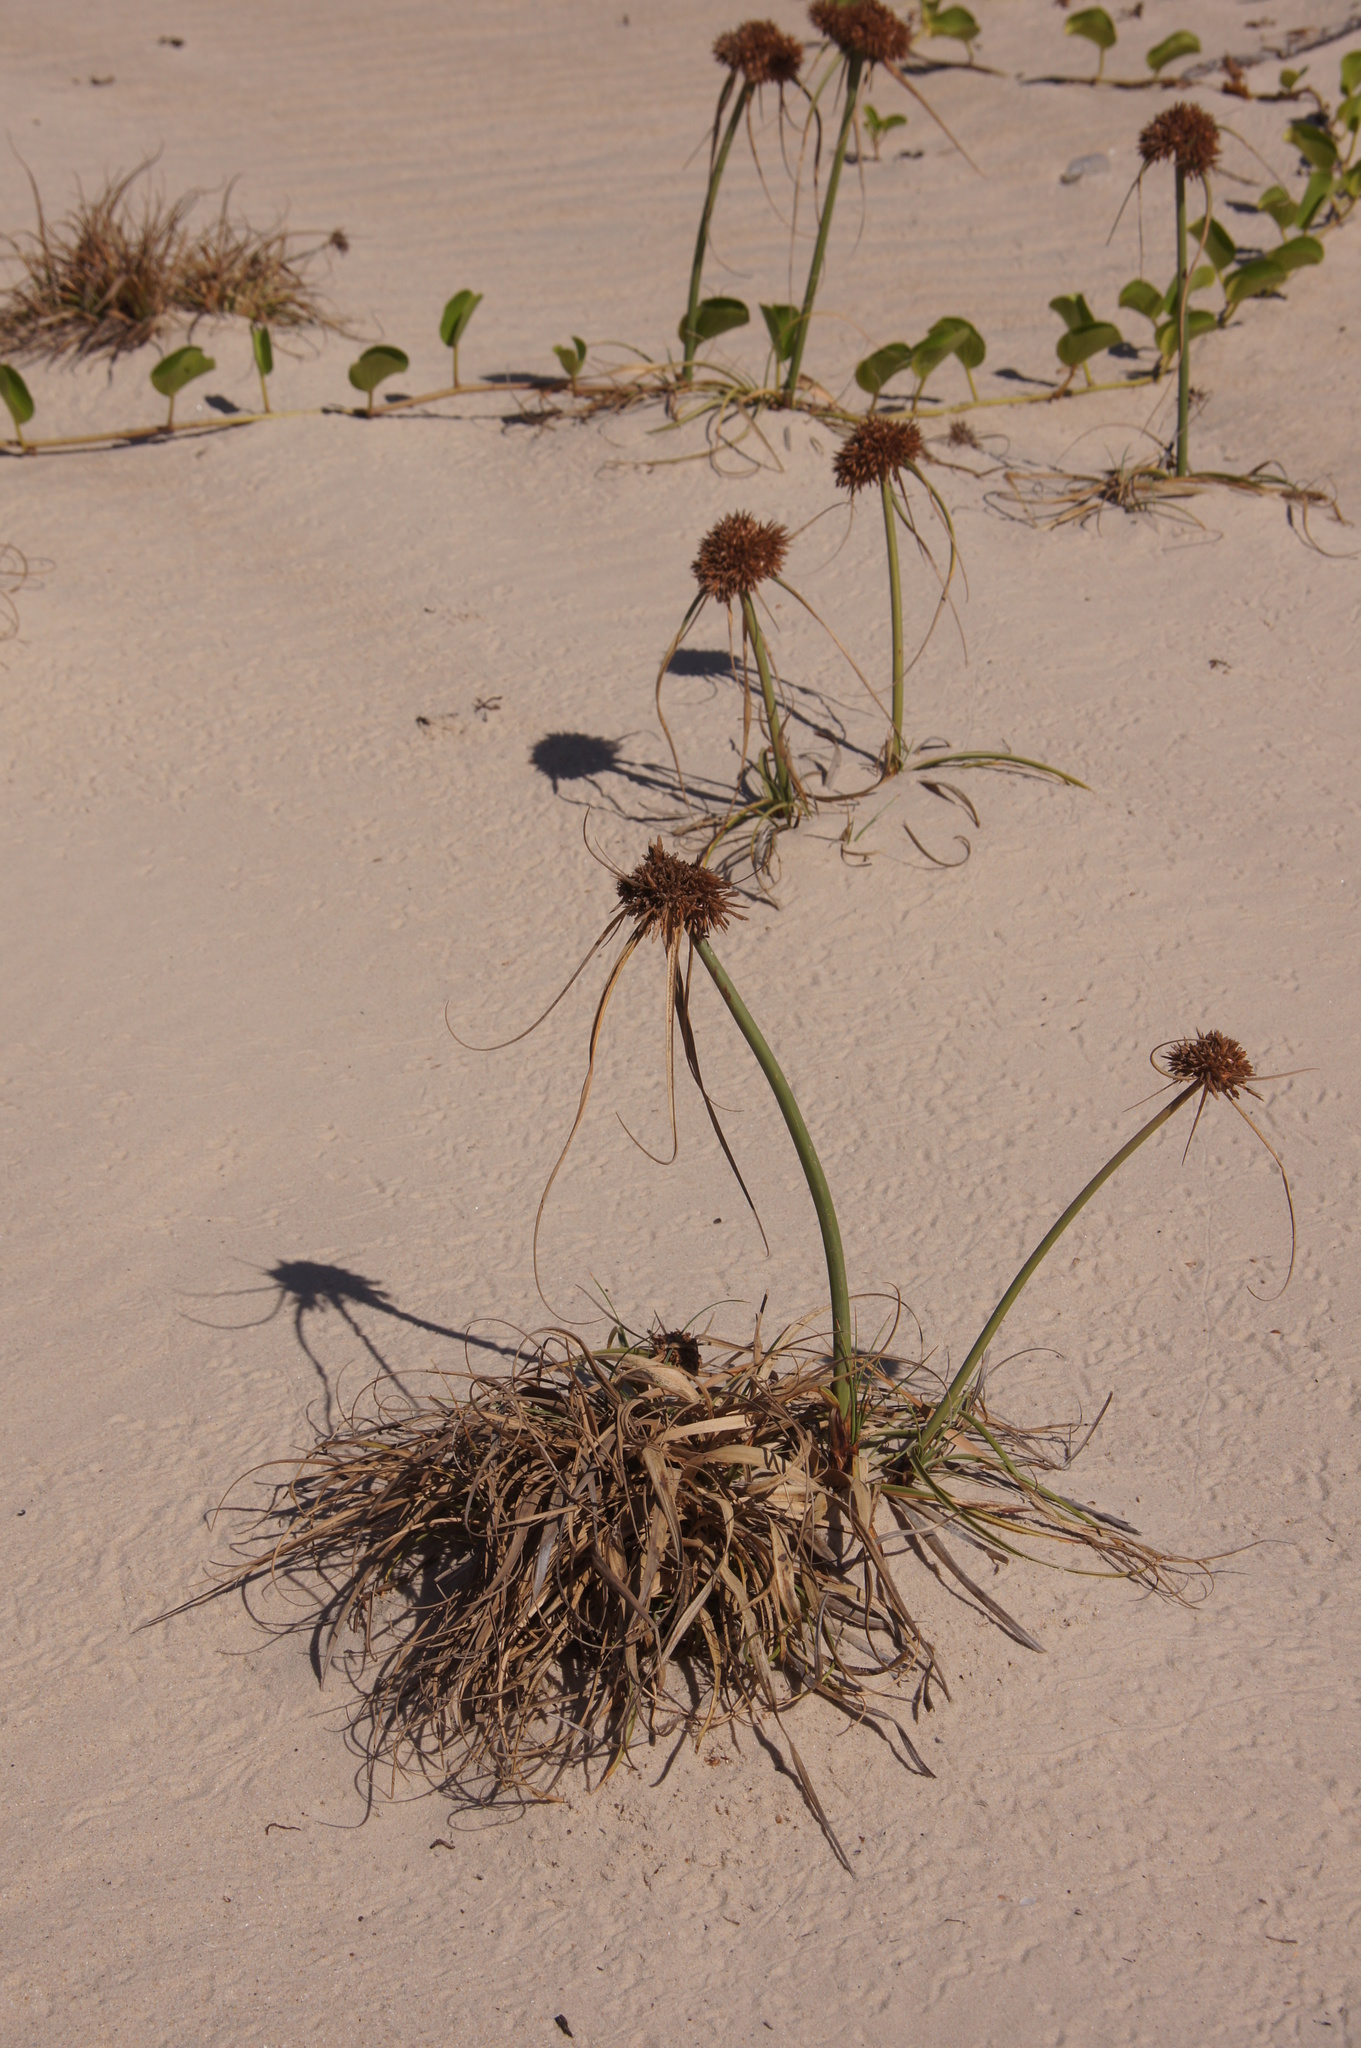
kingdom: Plantae
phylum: Tracheophyta
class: Liliopsida
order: Poales
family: Cyperaceae
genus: Cyperus
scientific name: Cyperus crassipes
